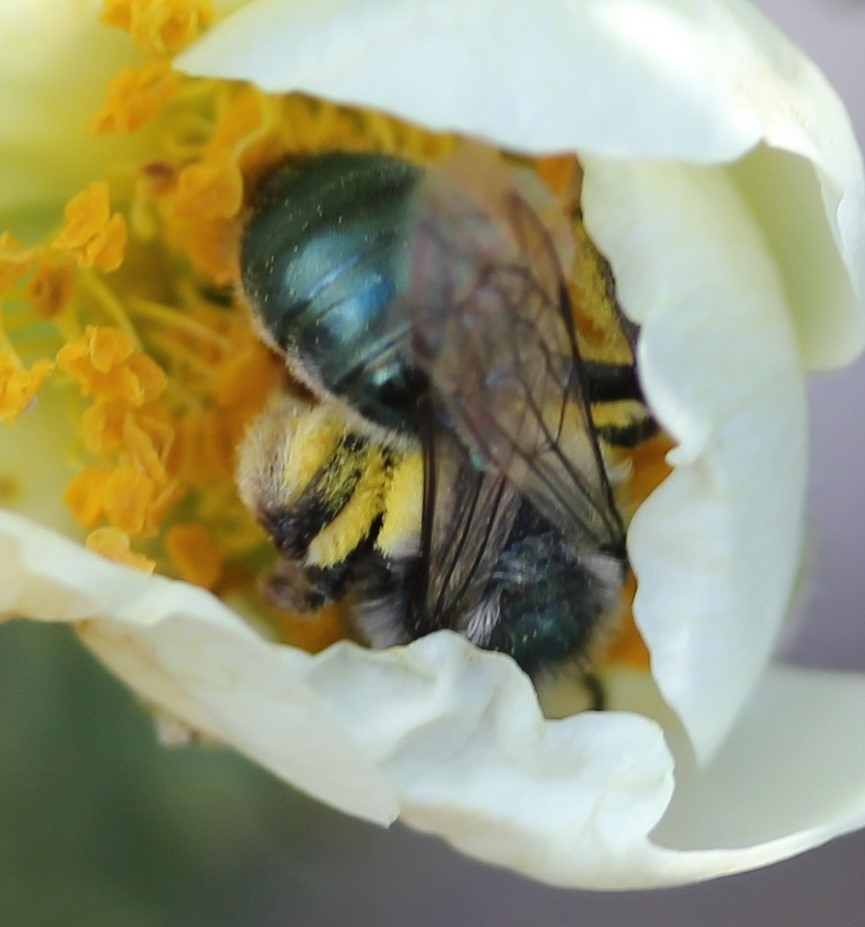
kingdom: Animalia
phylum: Arthropoda
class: Insecta
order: Hymenoptera
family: Andrenidae
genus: Andrena
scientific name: Andrena cerasifolii
